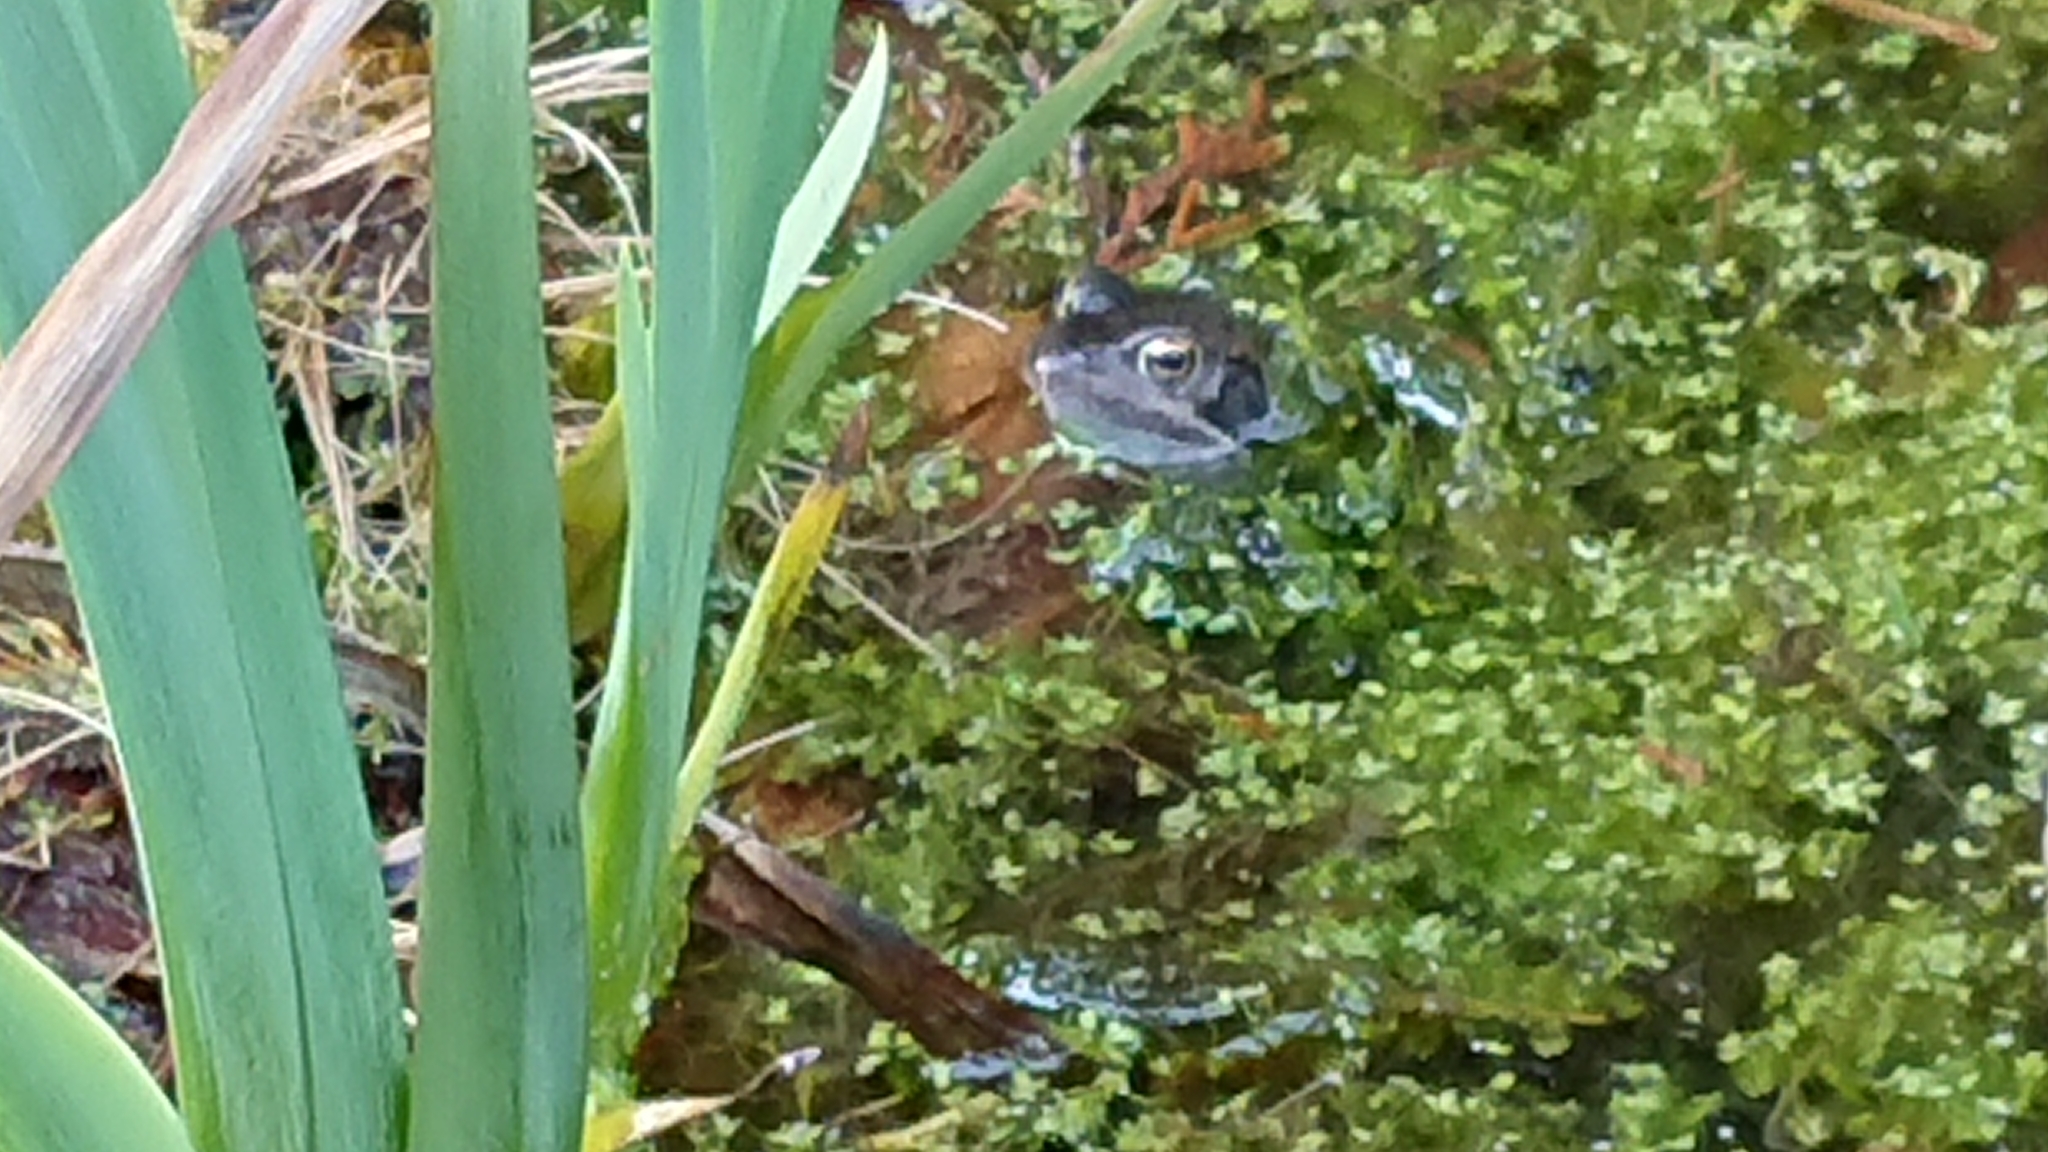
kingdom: Animalia
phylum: Chordata
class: Amphibia
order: Anura
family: Ranidae
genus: Rana
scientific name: Rana temporaria
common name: Common frog
